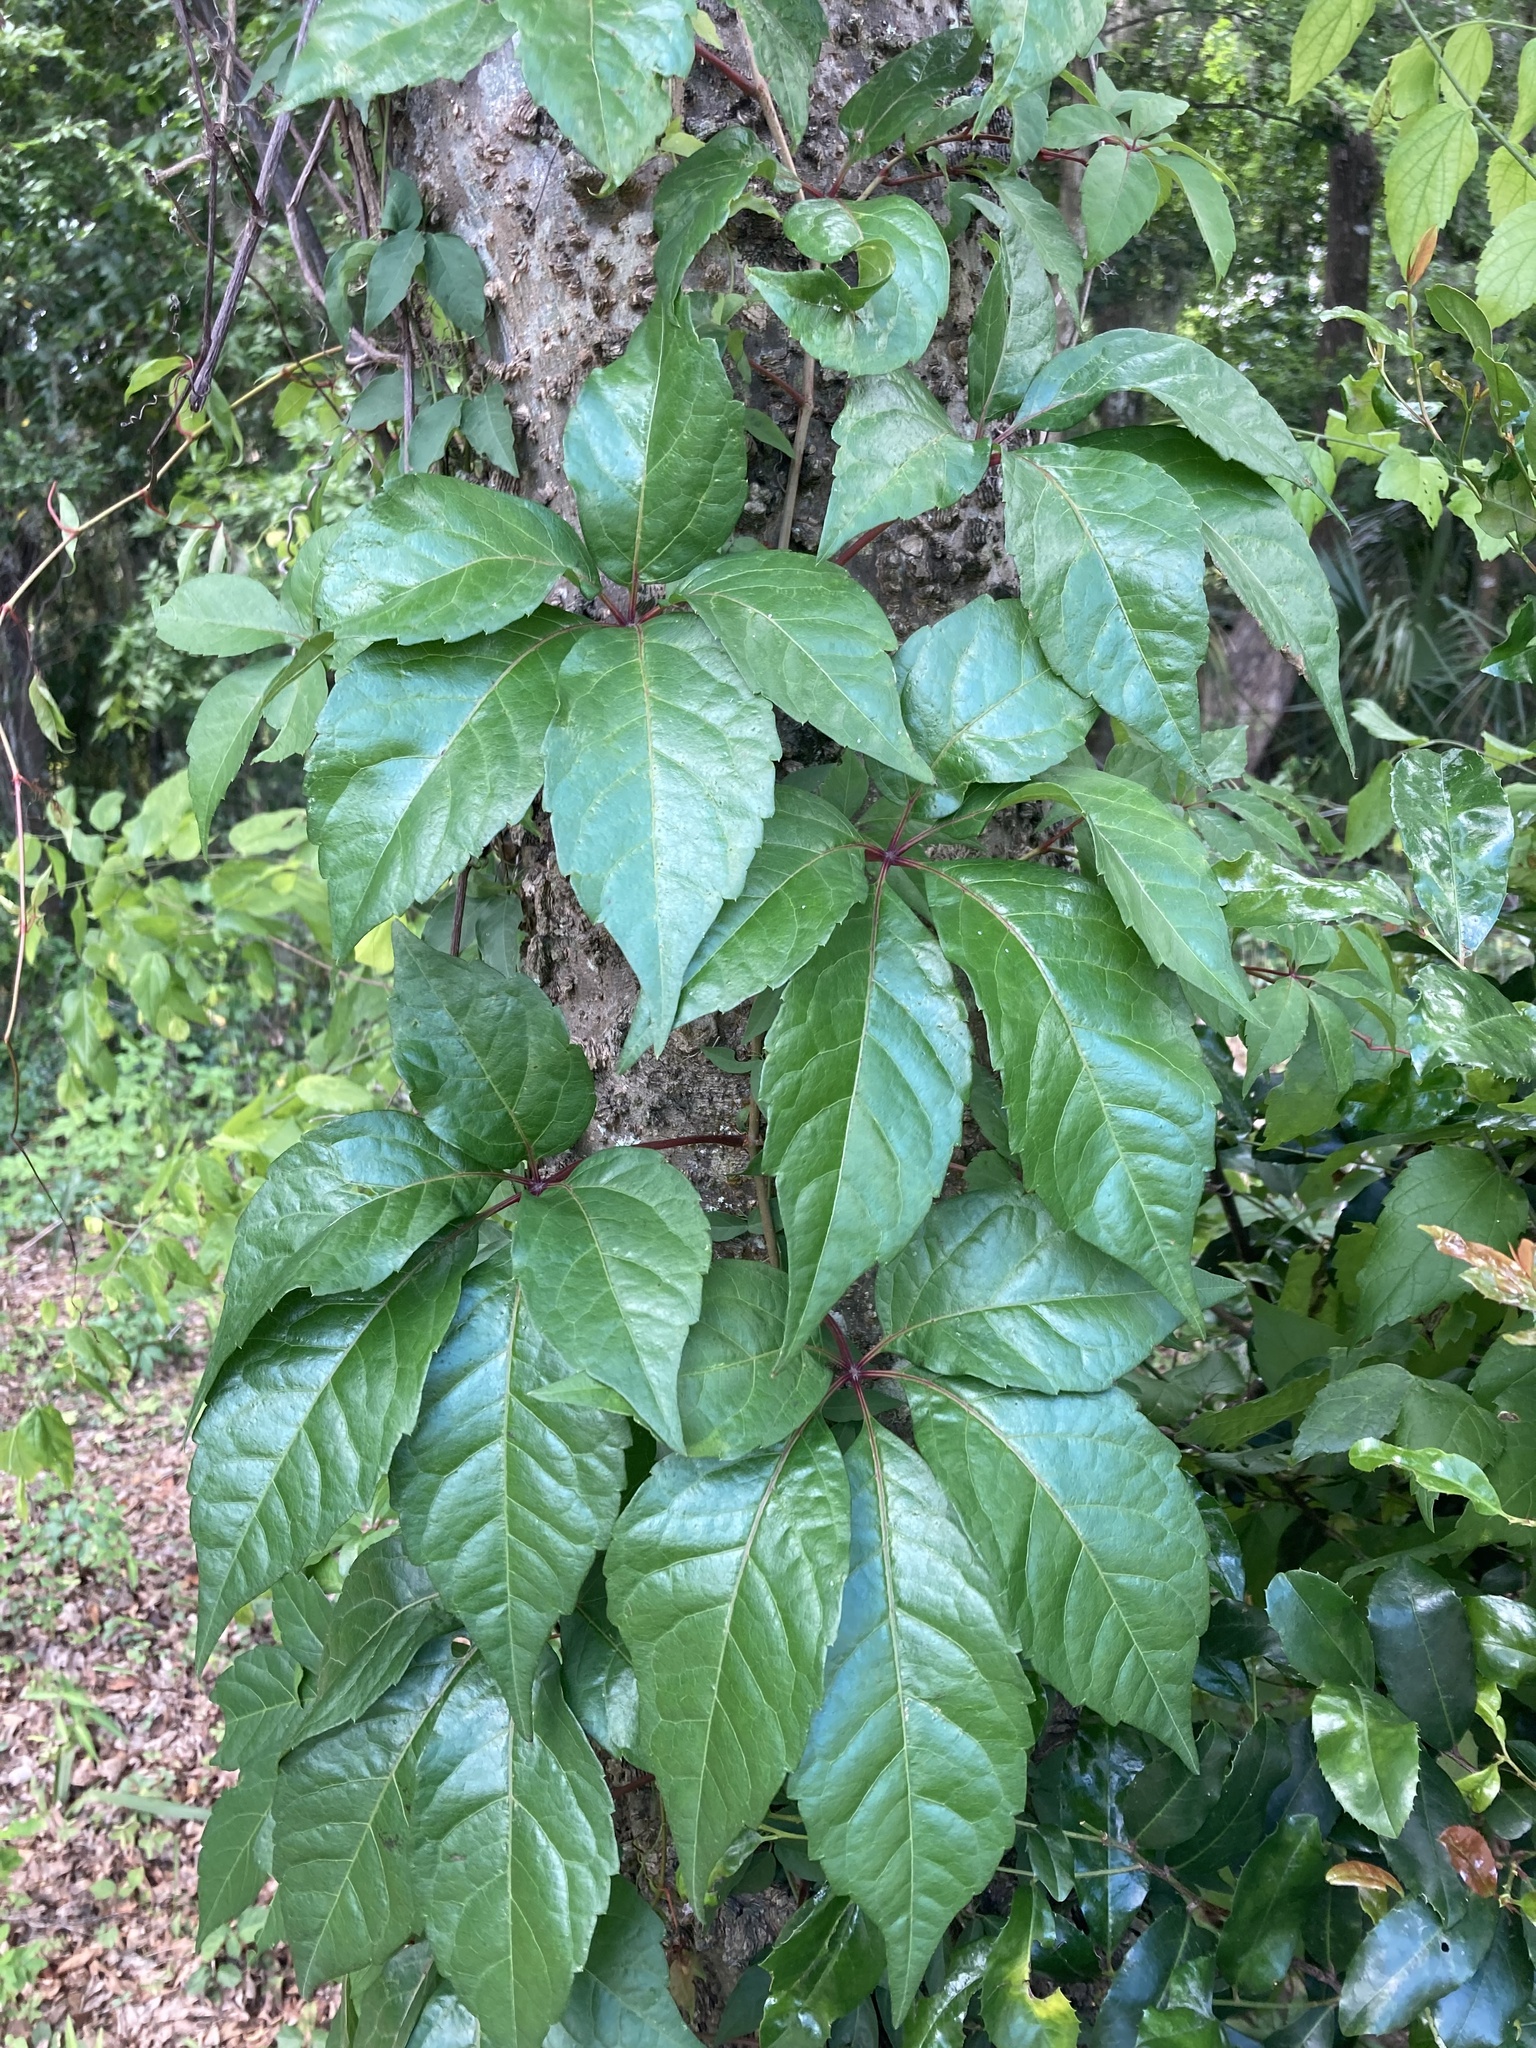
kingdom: Plantae
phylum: Tracheophyta
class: Magnoliopsida
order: Vitales
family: Vitaceae
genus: Parthenocissus
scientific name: Parthenocissus quinquefolia
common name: Virginia-creeper
